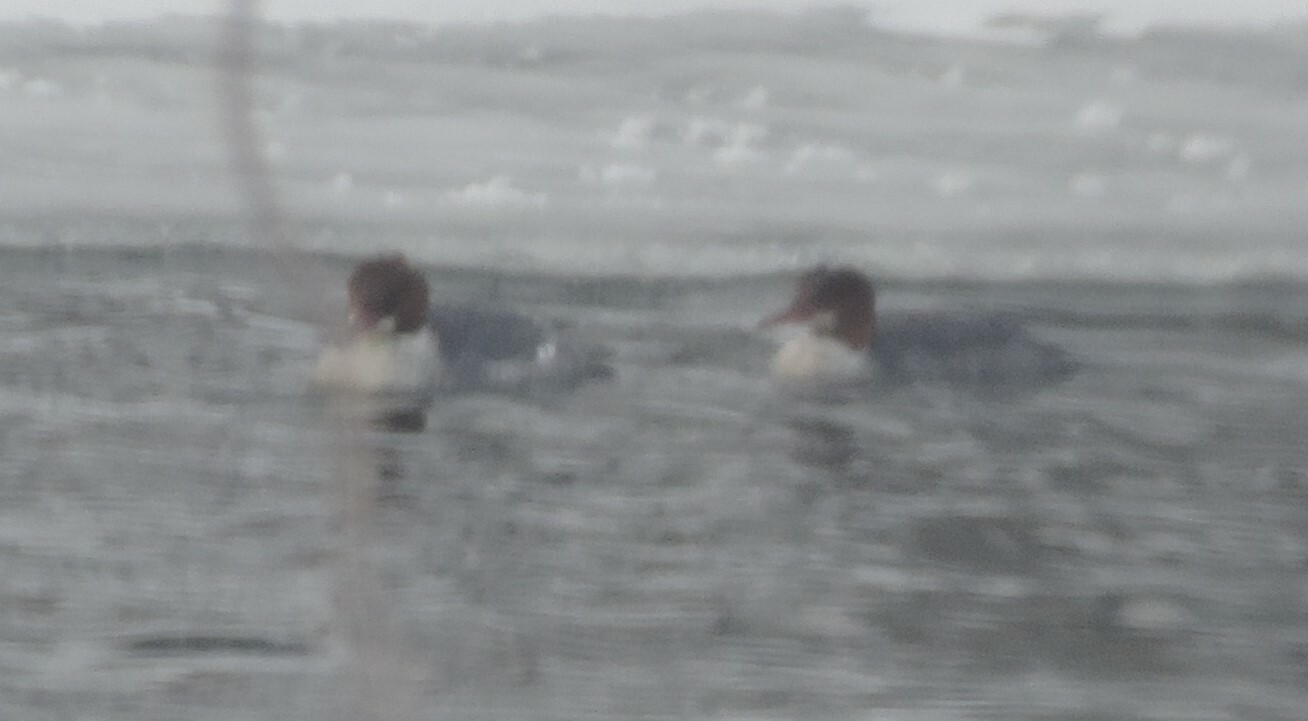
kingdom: Animalia
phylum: Chordata
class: Aves
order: Anseriformes
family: Anatidae
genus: Mergus
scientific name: Mergus merganser
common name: Common merganser
